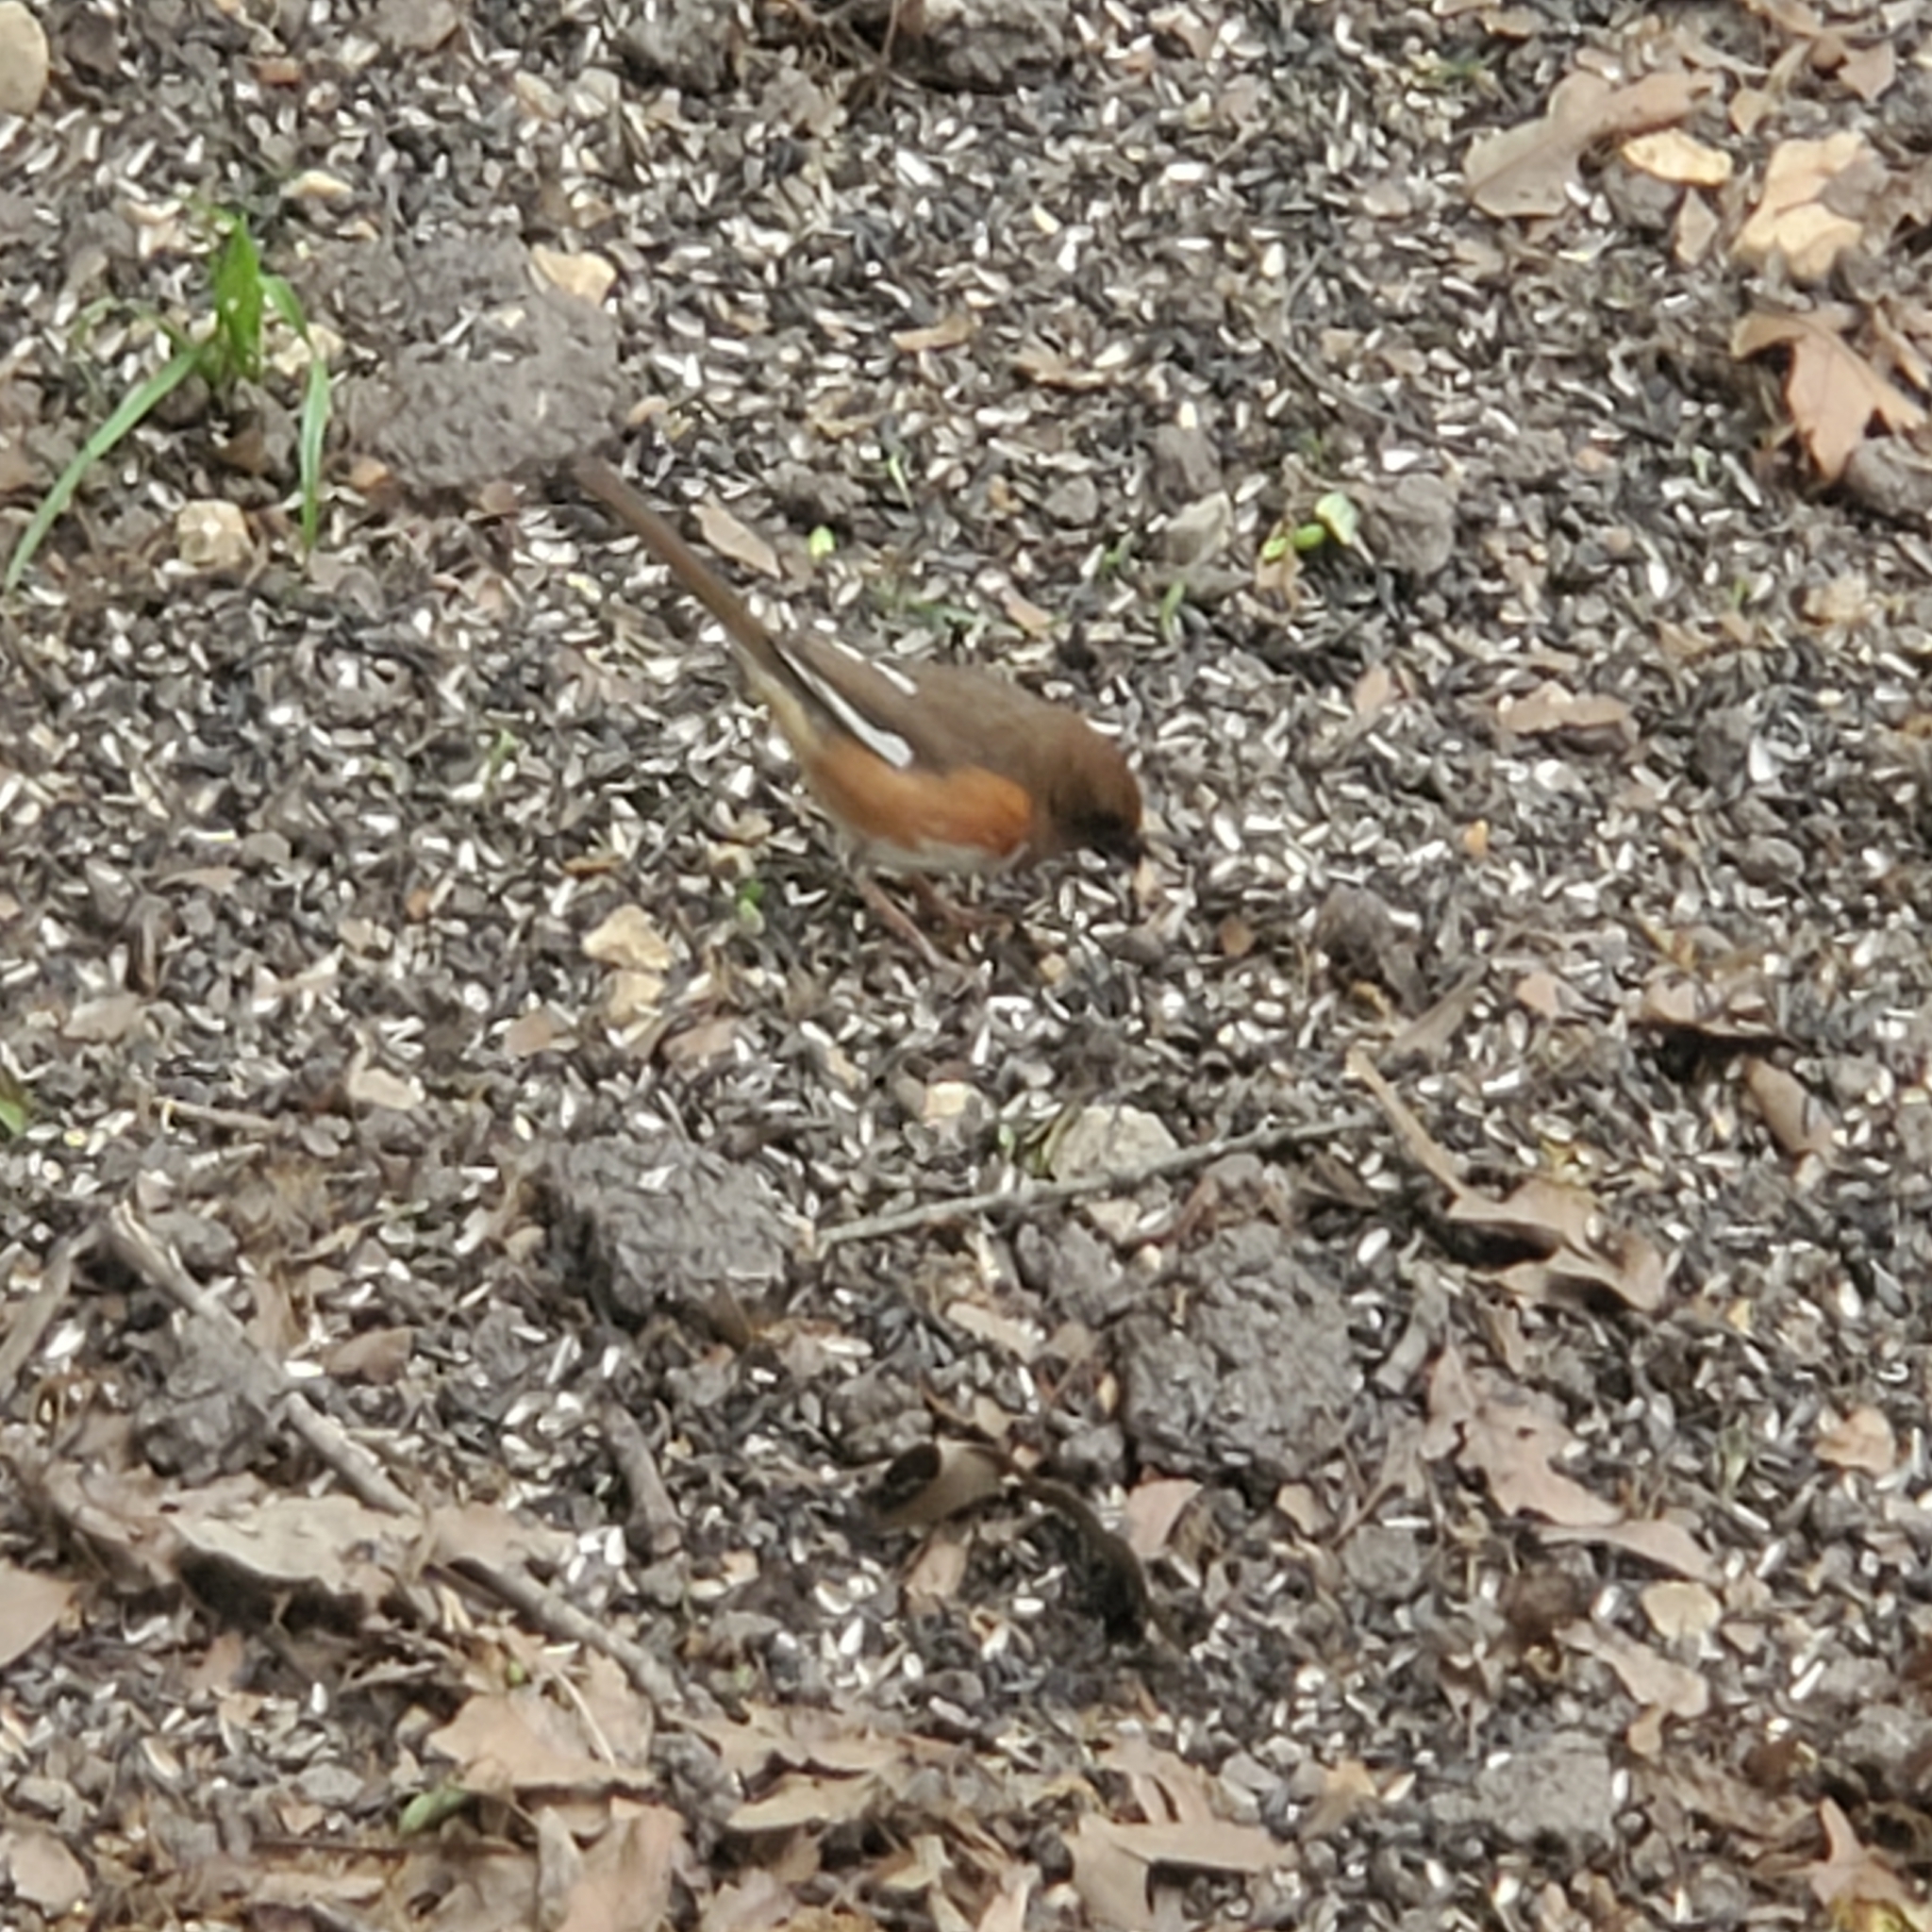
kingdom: Animalia
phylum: Chordata
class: Aves
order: Passeriformes
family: Passerellidae
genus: Pipilo
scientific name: Pipilo erythrophthalmus
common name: Eastern towhee
